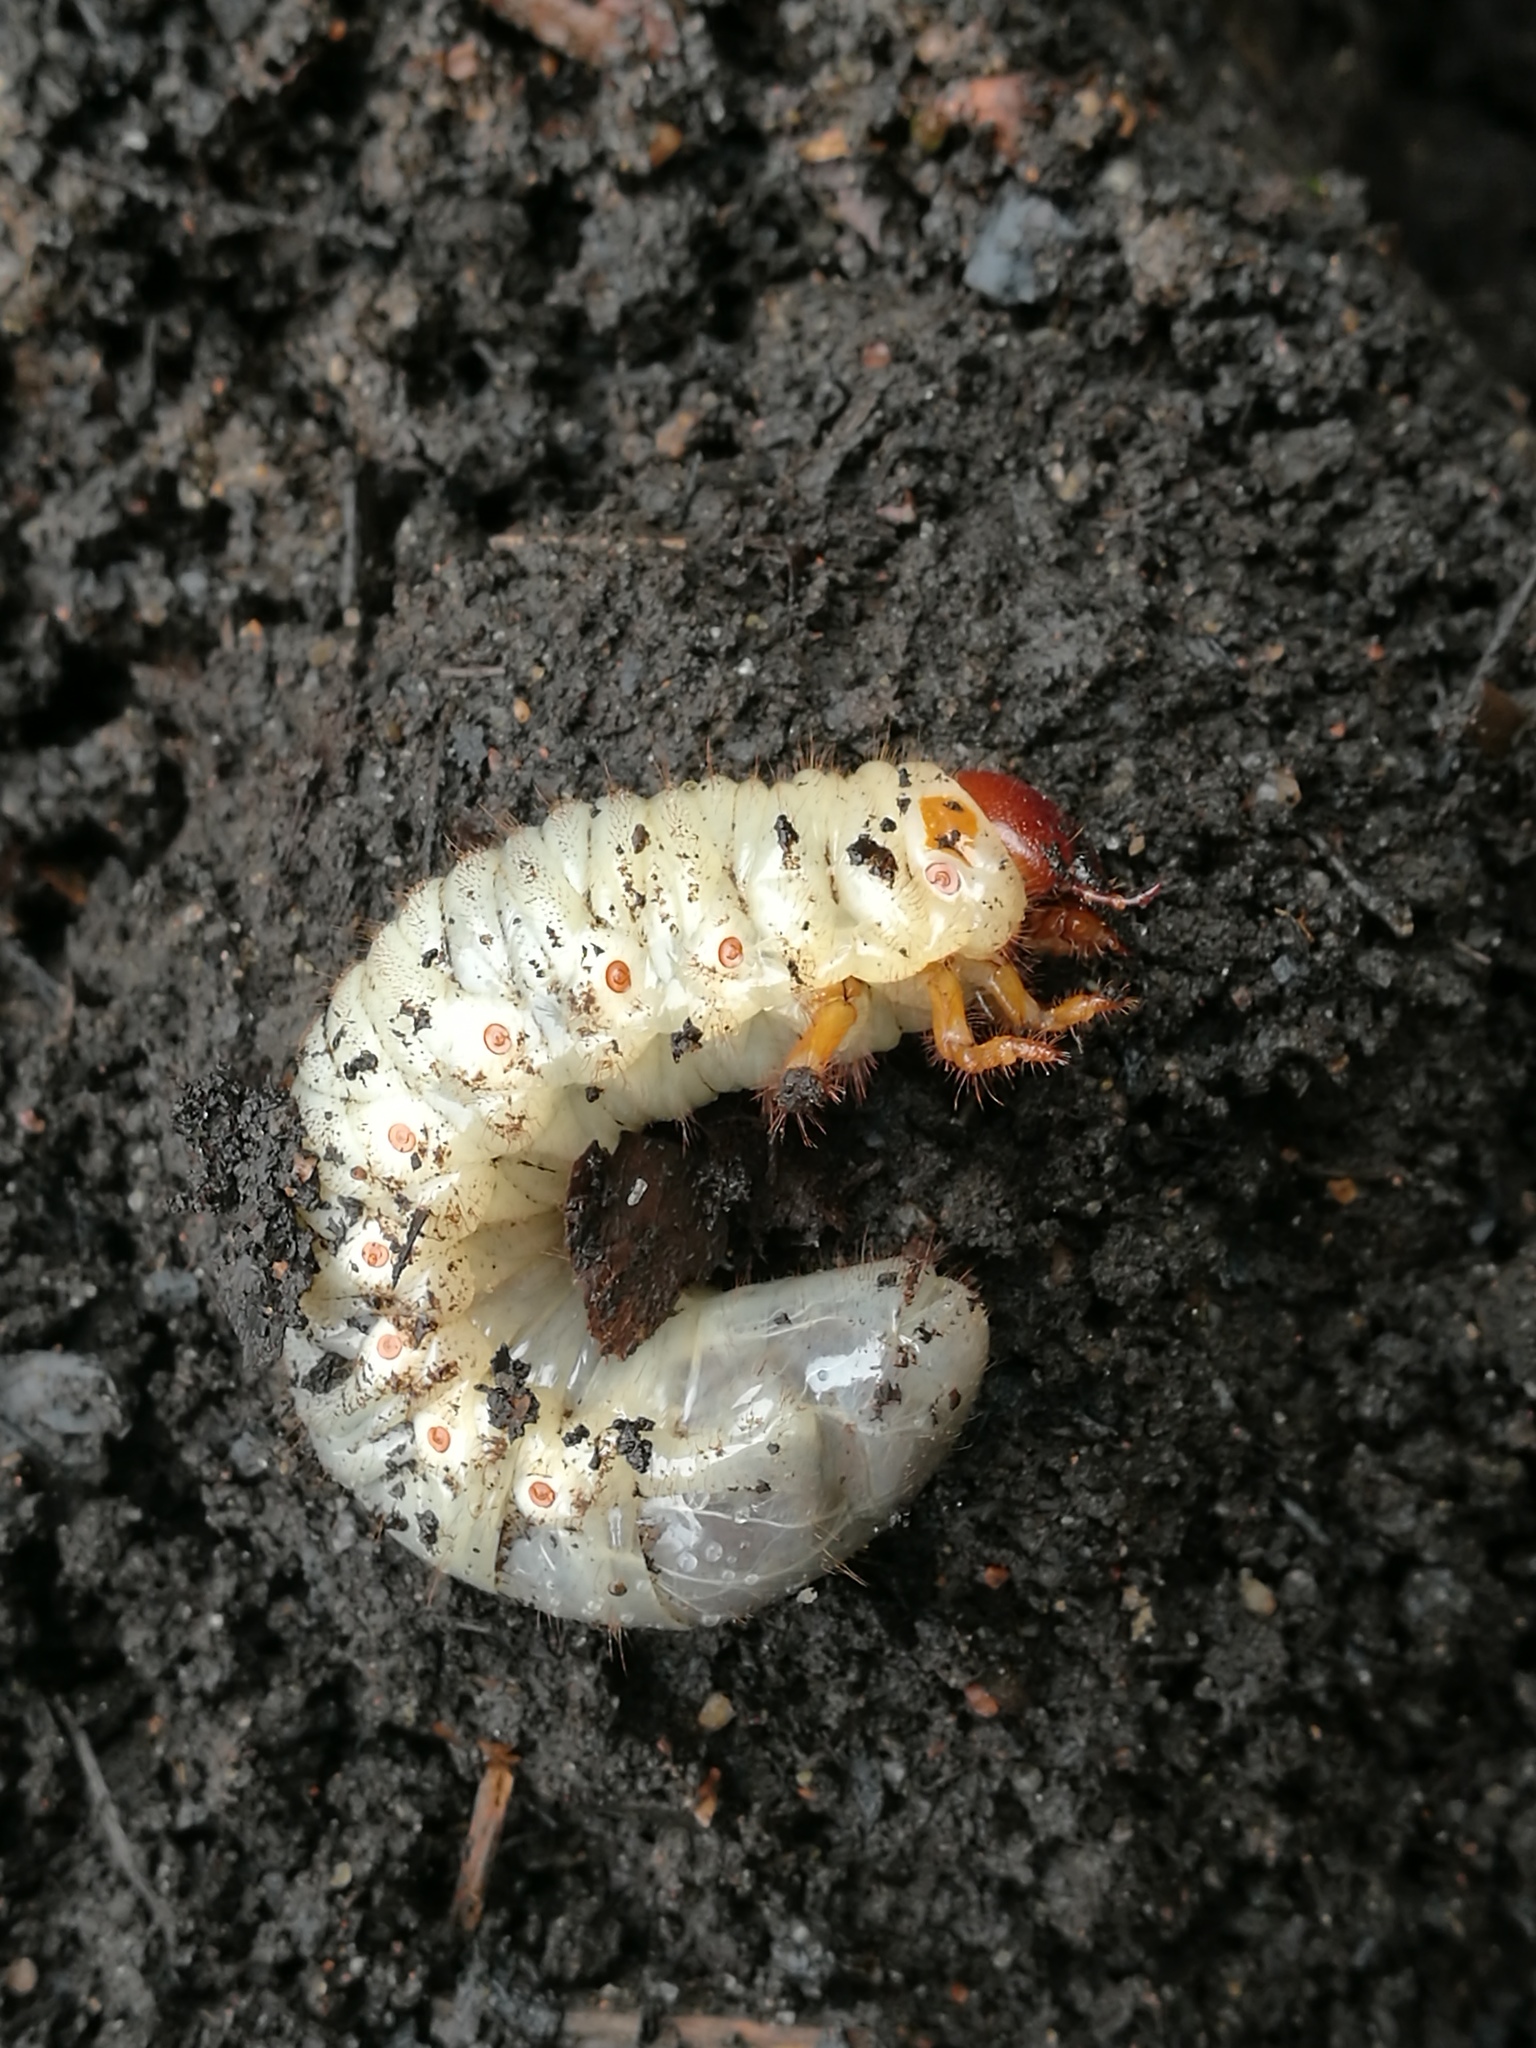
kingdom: Animalia
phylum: Arthropoda
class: Insecta
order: Coleoptera
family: Scarabaeidae
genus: Oryctes
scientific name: Oryctes nasicornis
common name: European rhinoceros beetle
